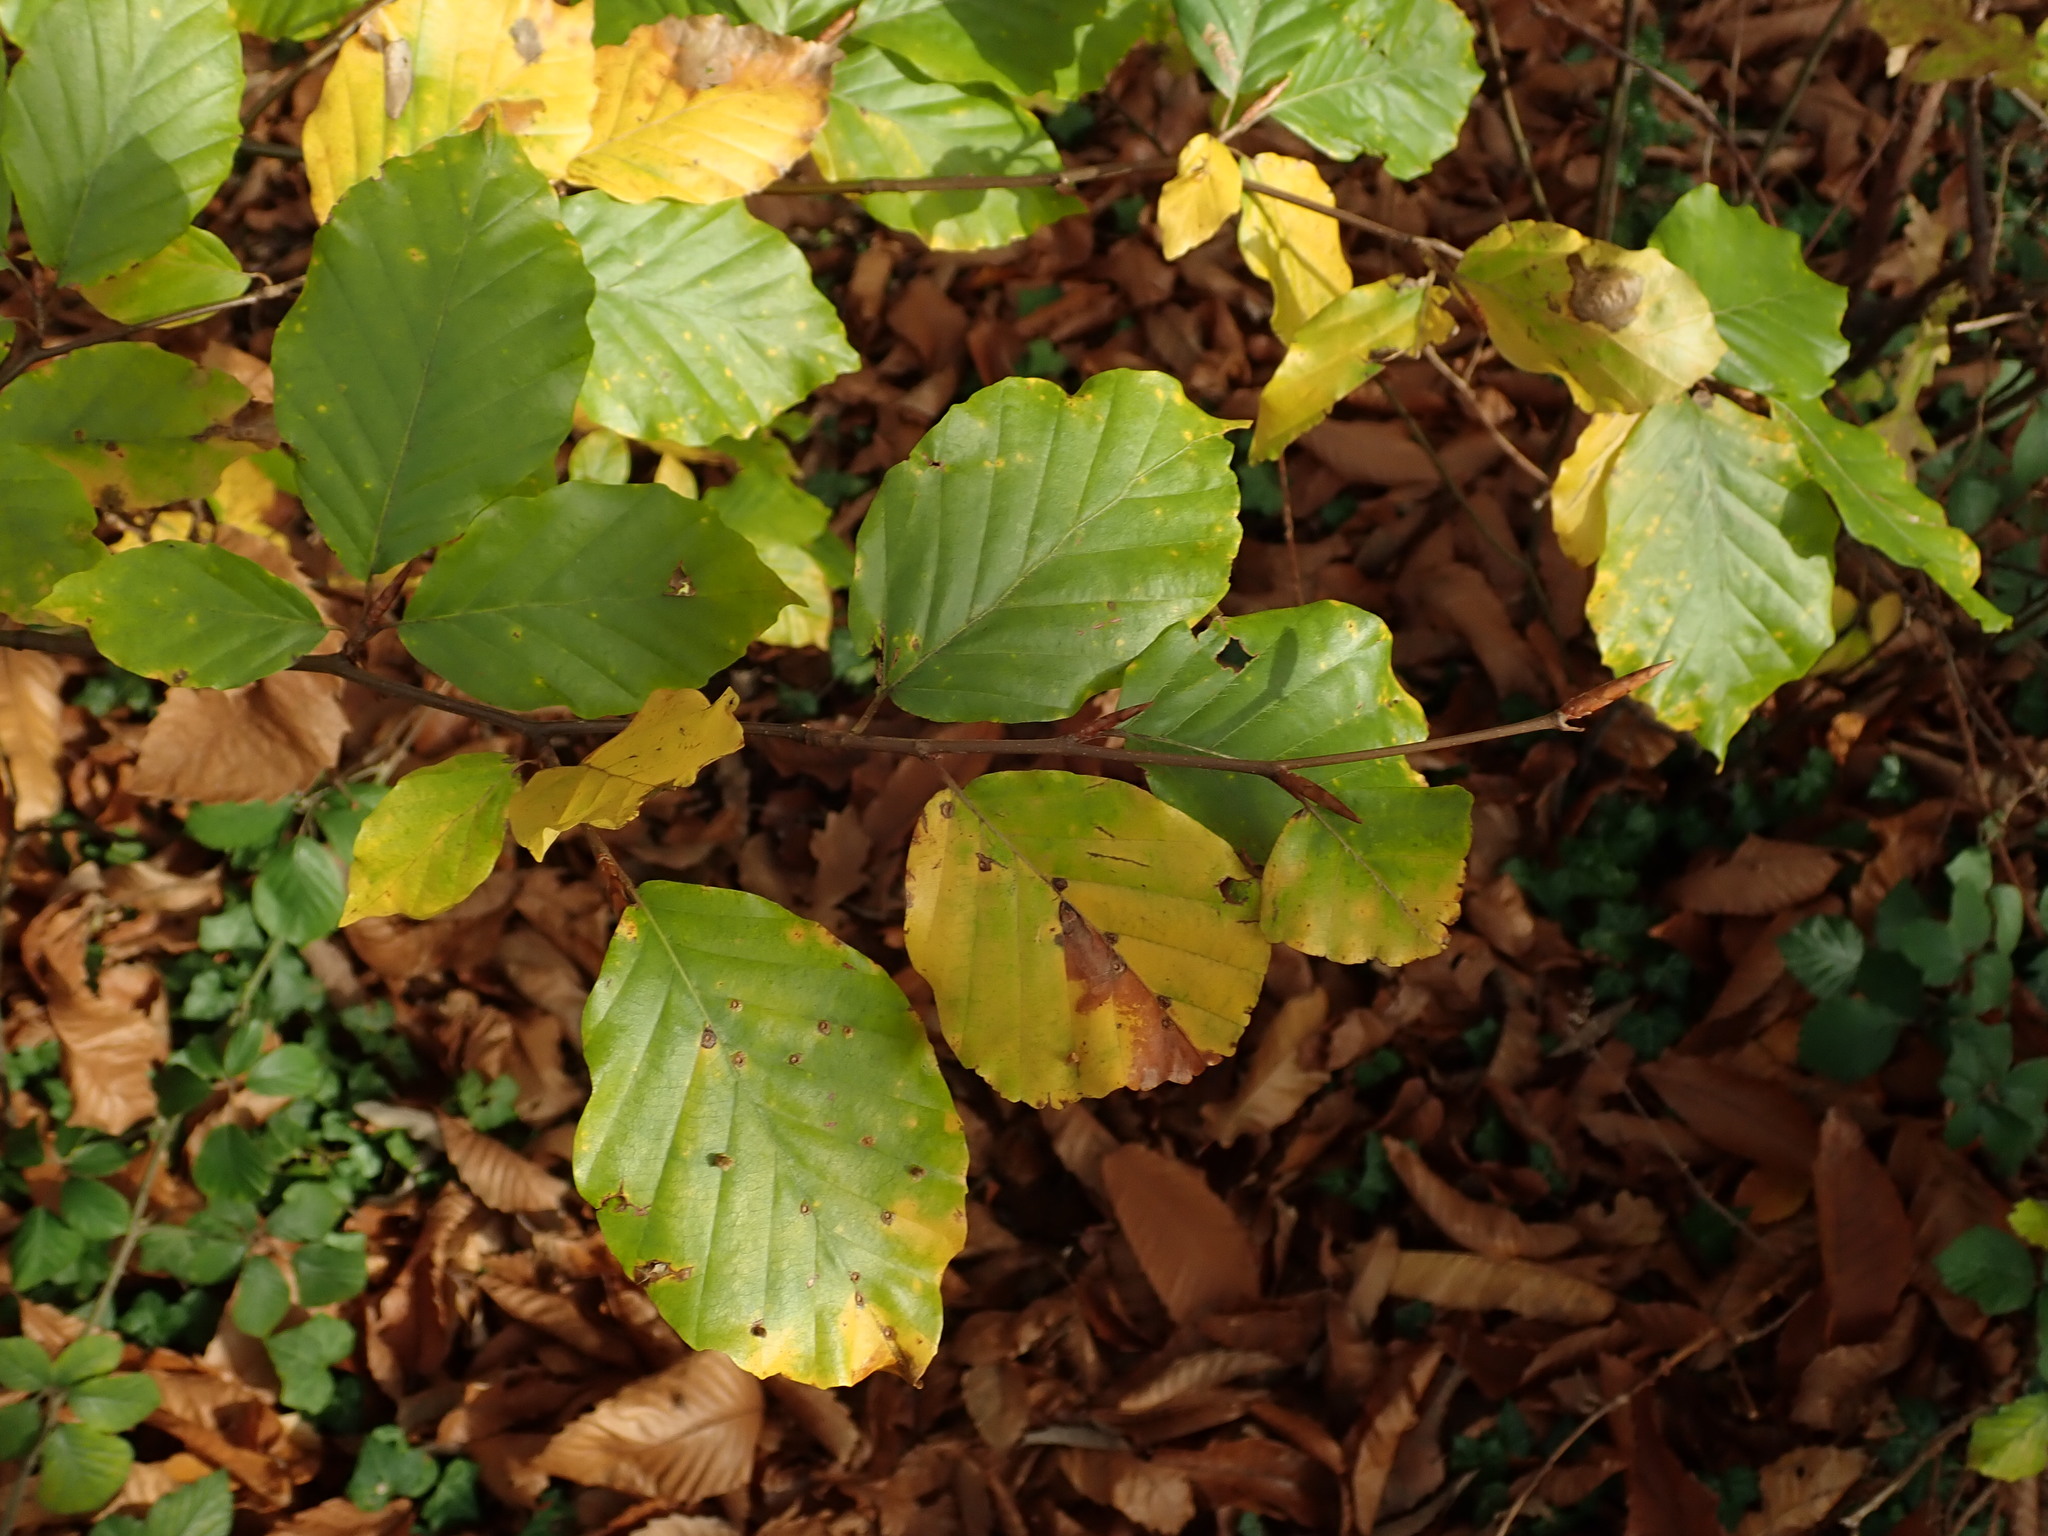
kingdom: Plantae
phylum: Tracheophyta
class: Magnoliopsida
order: Fagales
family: Fagaceae
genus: Fagus
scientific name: Fagus sylvatica
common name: Beech
